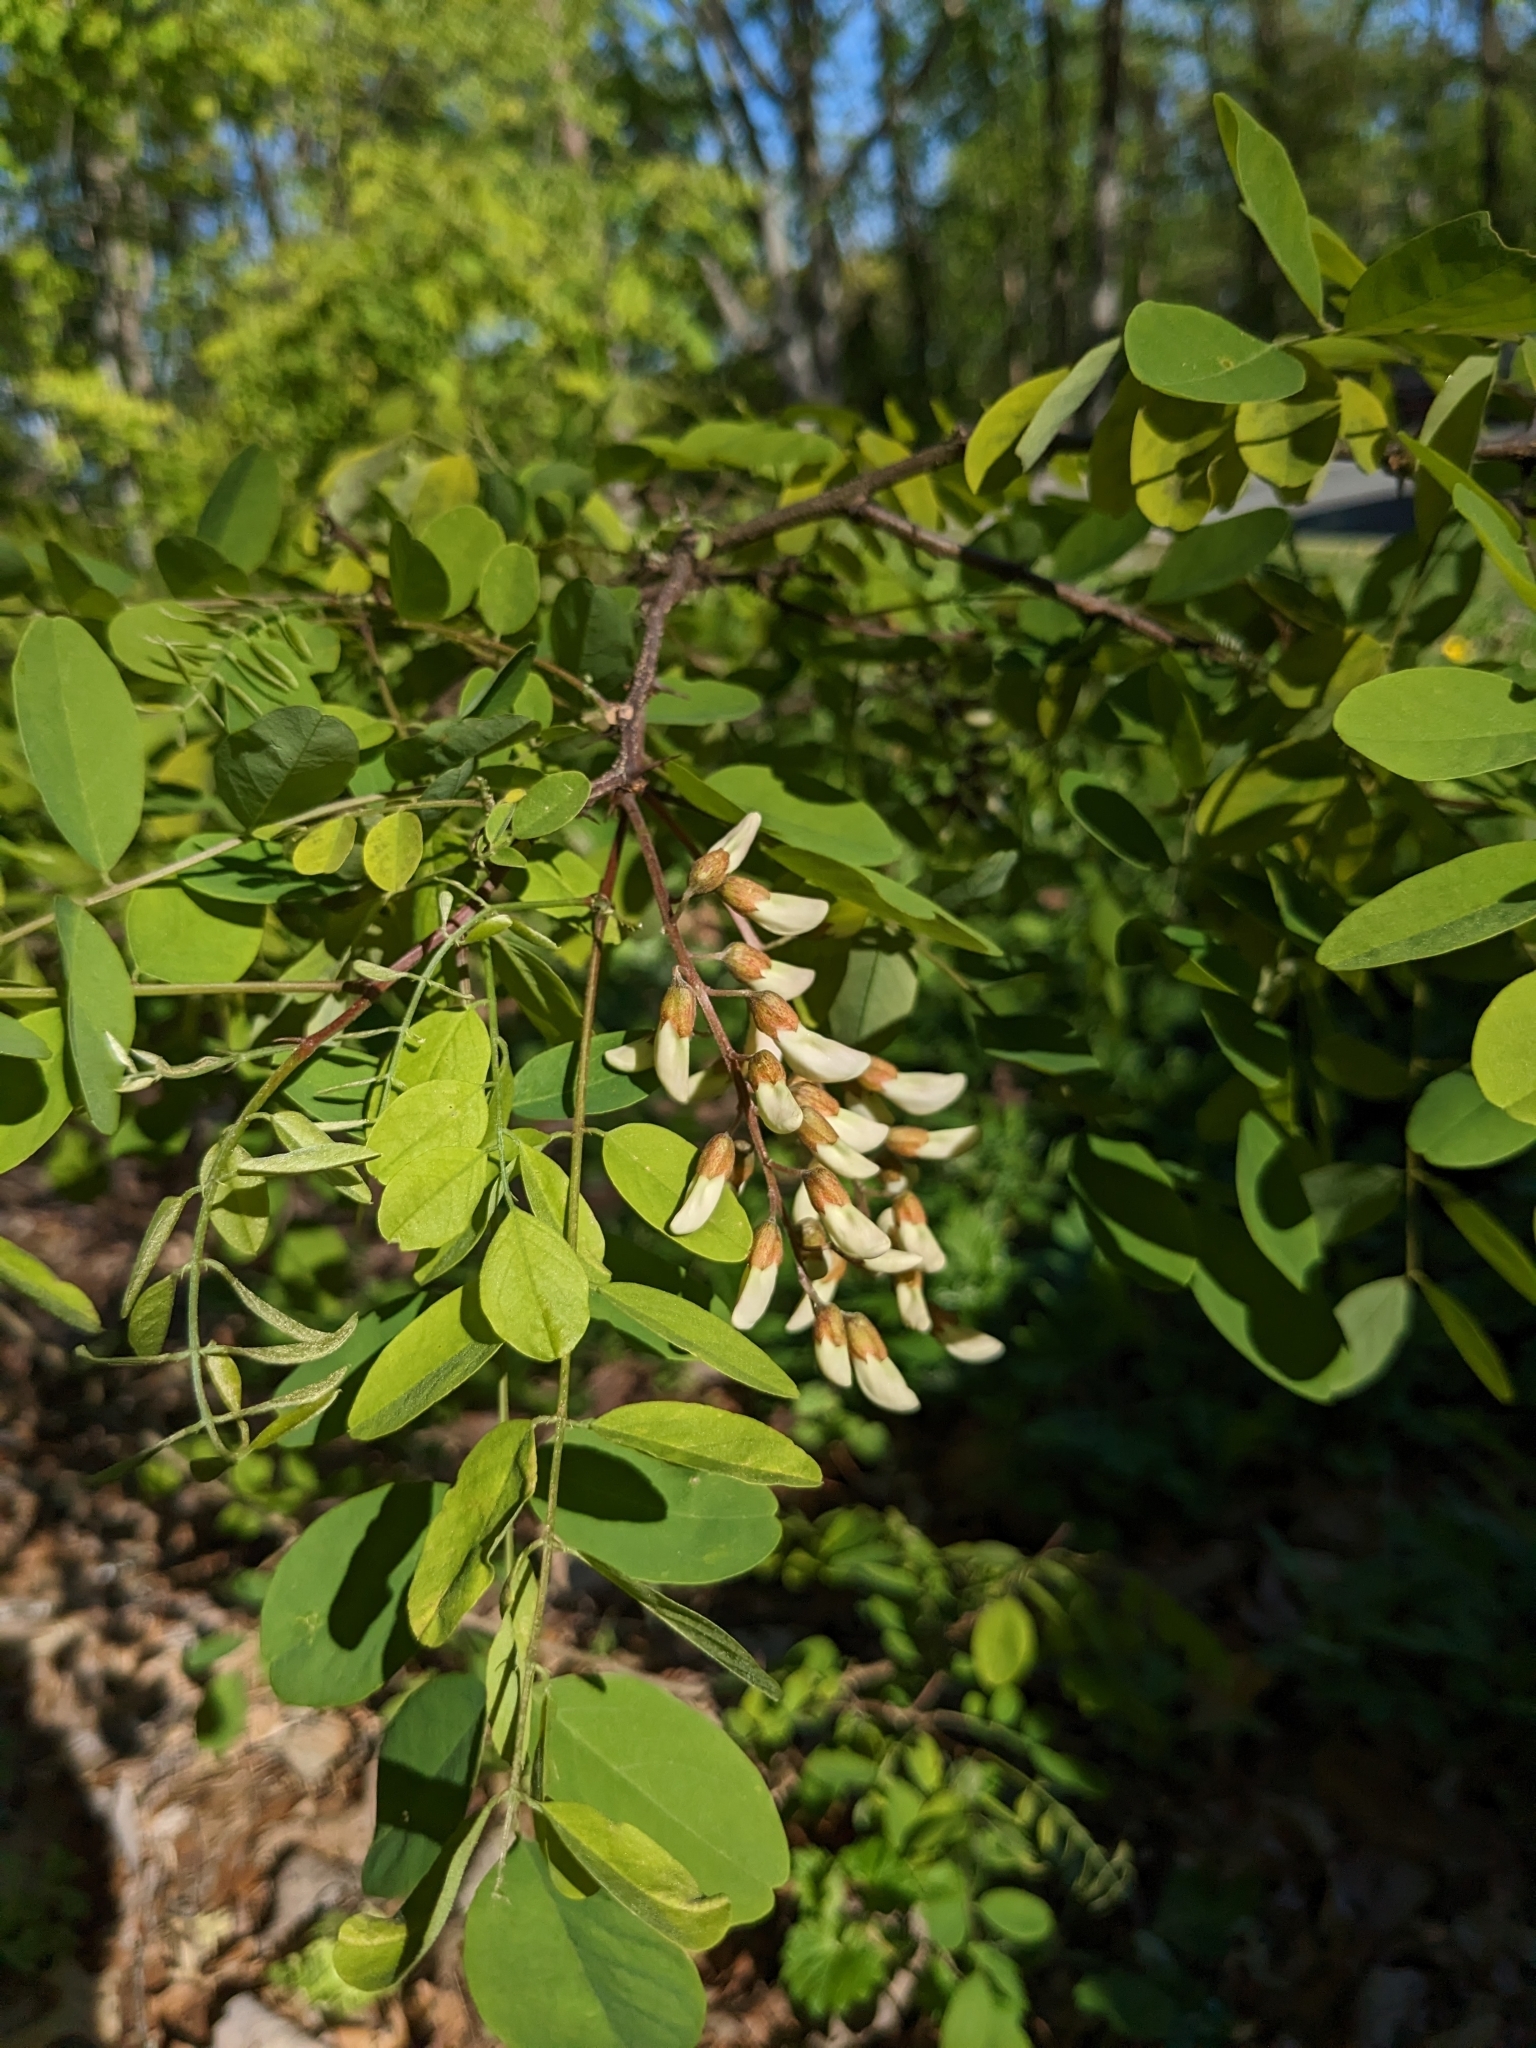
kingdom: Plantae
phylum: Tracheophyta
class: Magnoliopsida
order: Fabales
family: Fabaceae
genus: Robinia
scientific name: Robinia pseudoacacia
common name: Black locust
